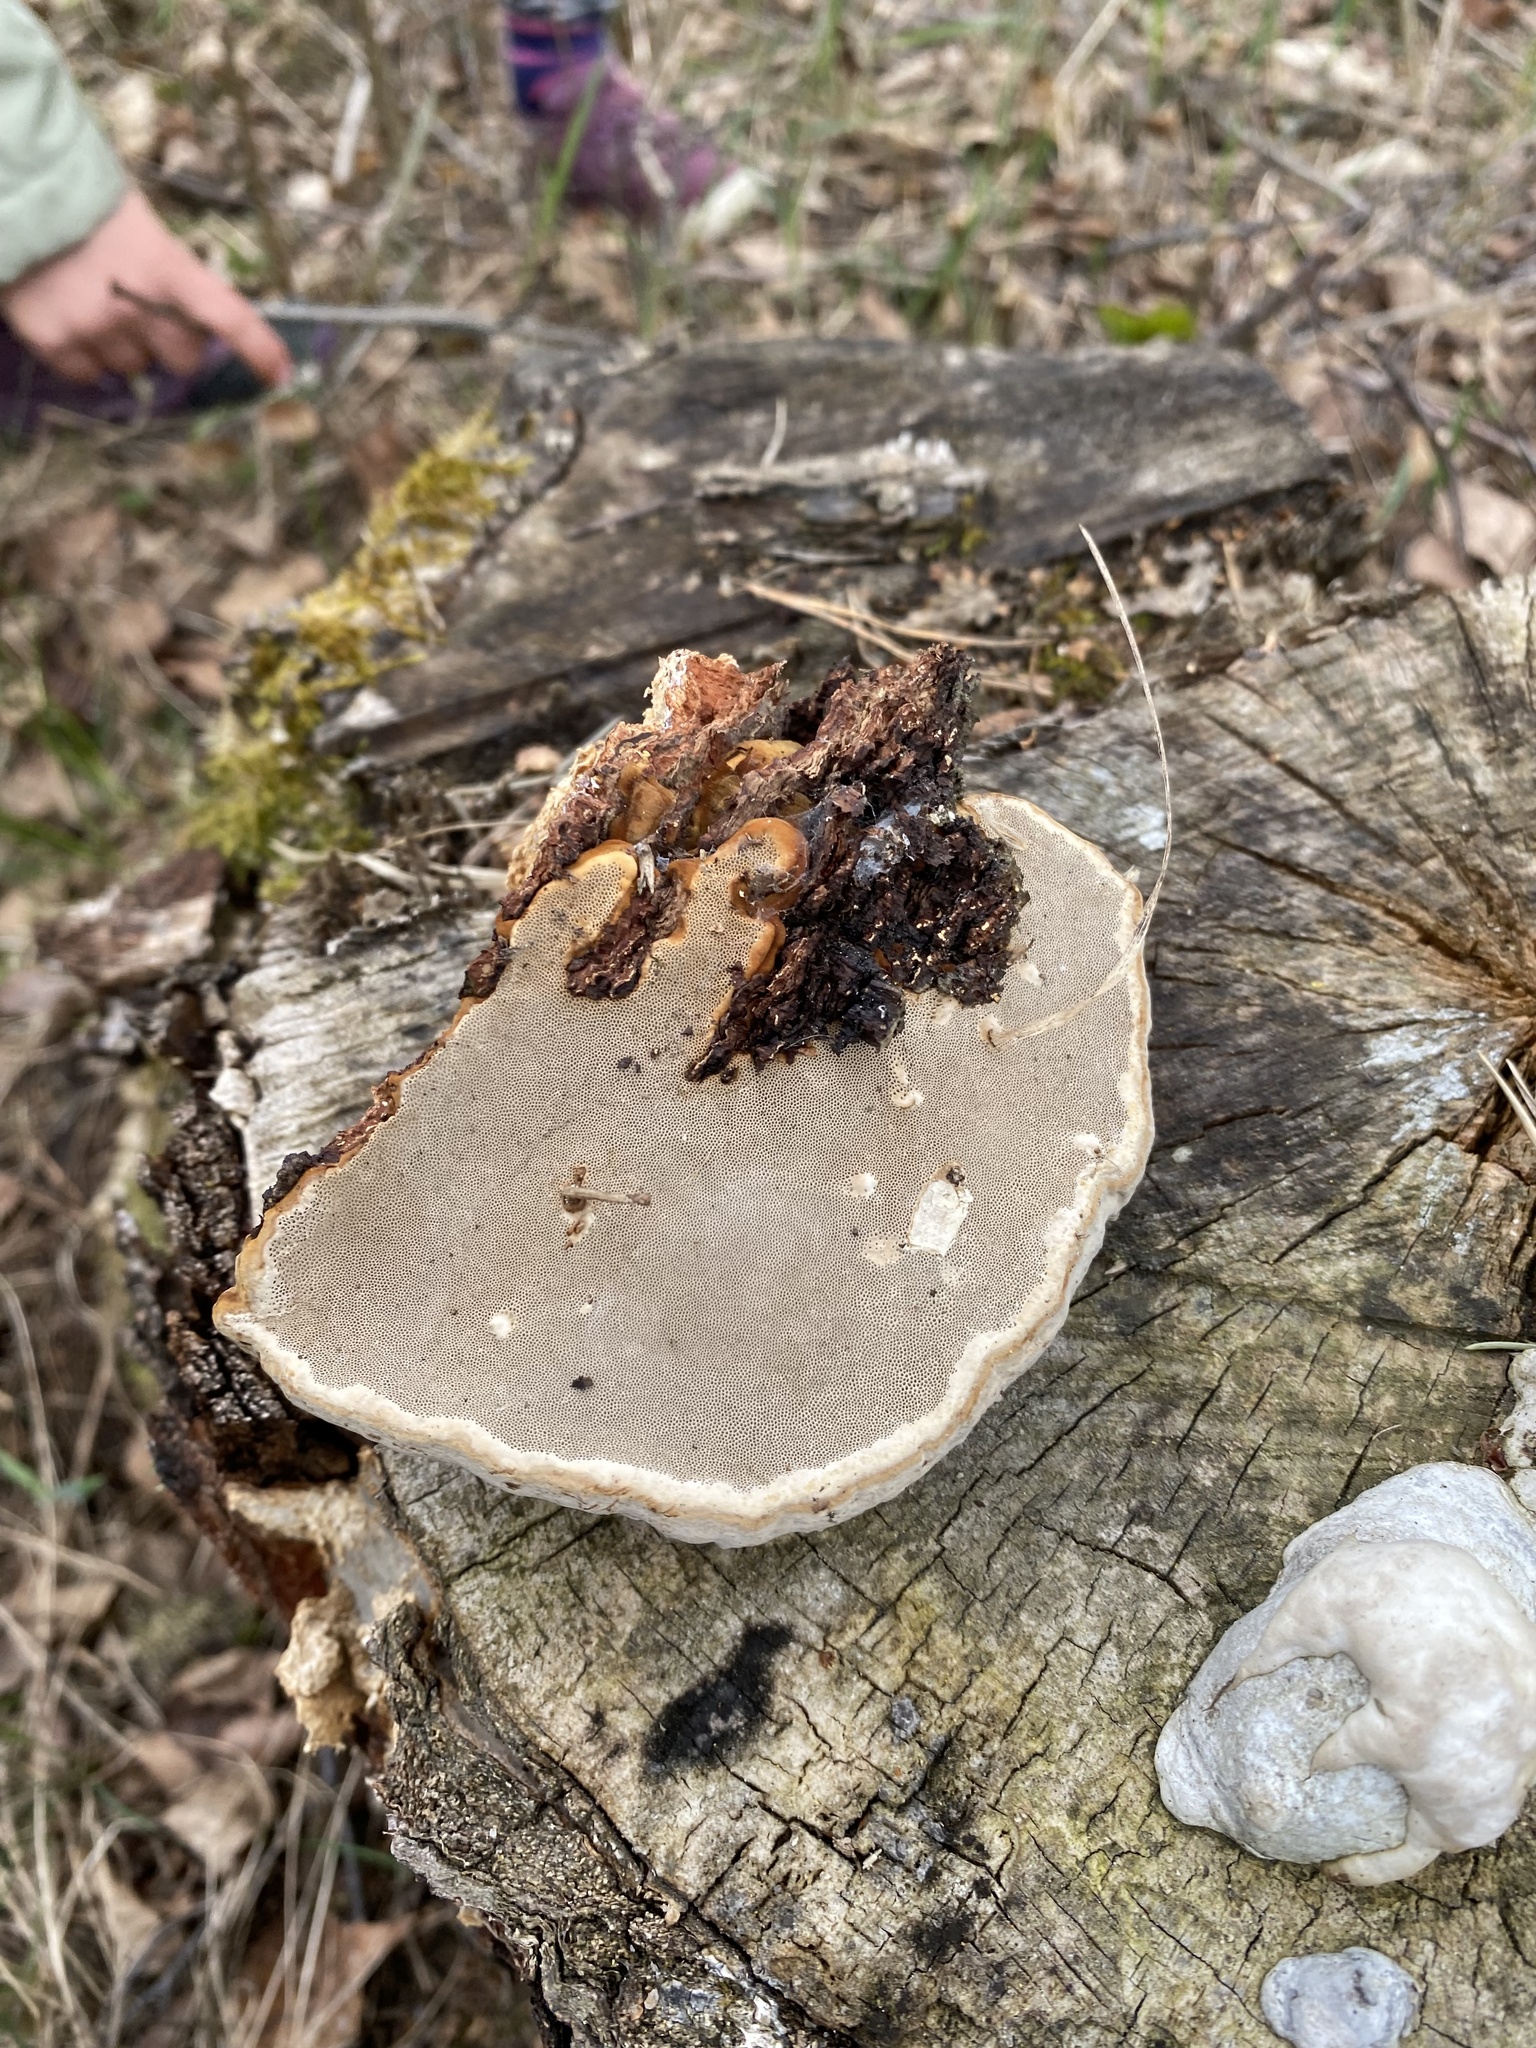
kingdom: Fungi
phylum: Basidiomycota
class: Agaricomycetes
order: Polyporales
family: Polyporaceae
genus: Fomes
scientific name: Fomes fomentarius
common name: Hoof fungus
